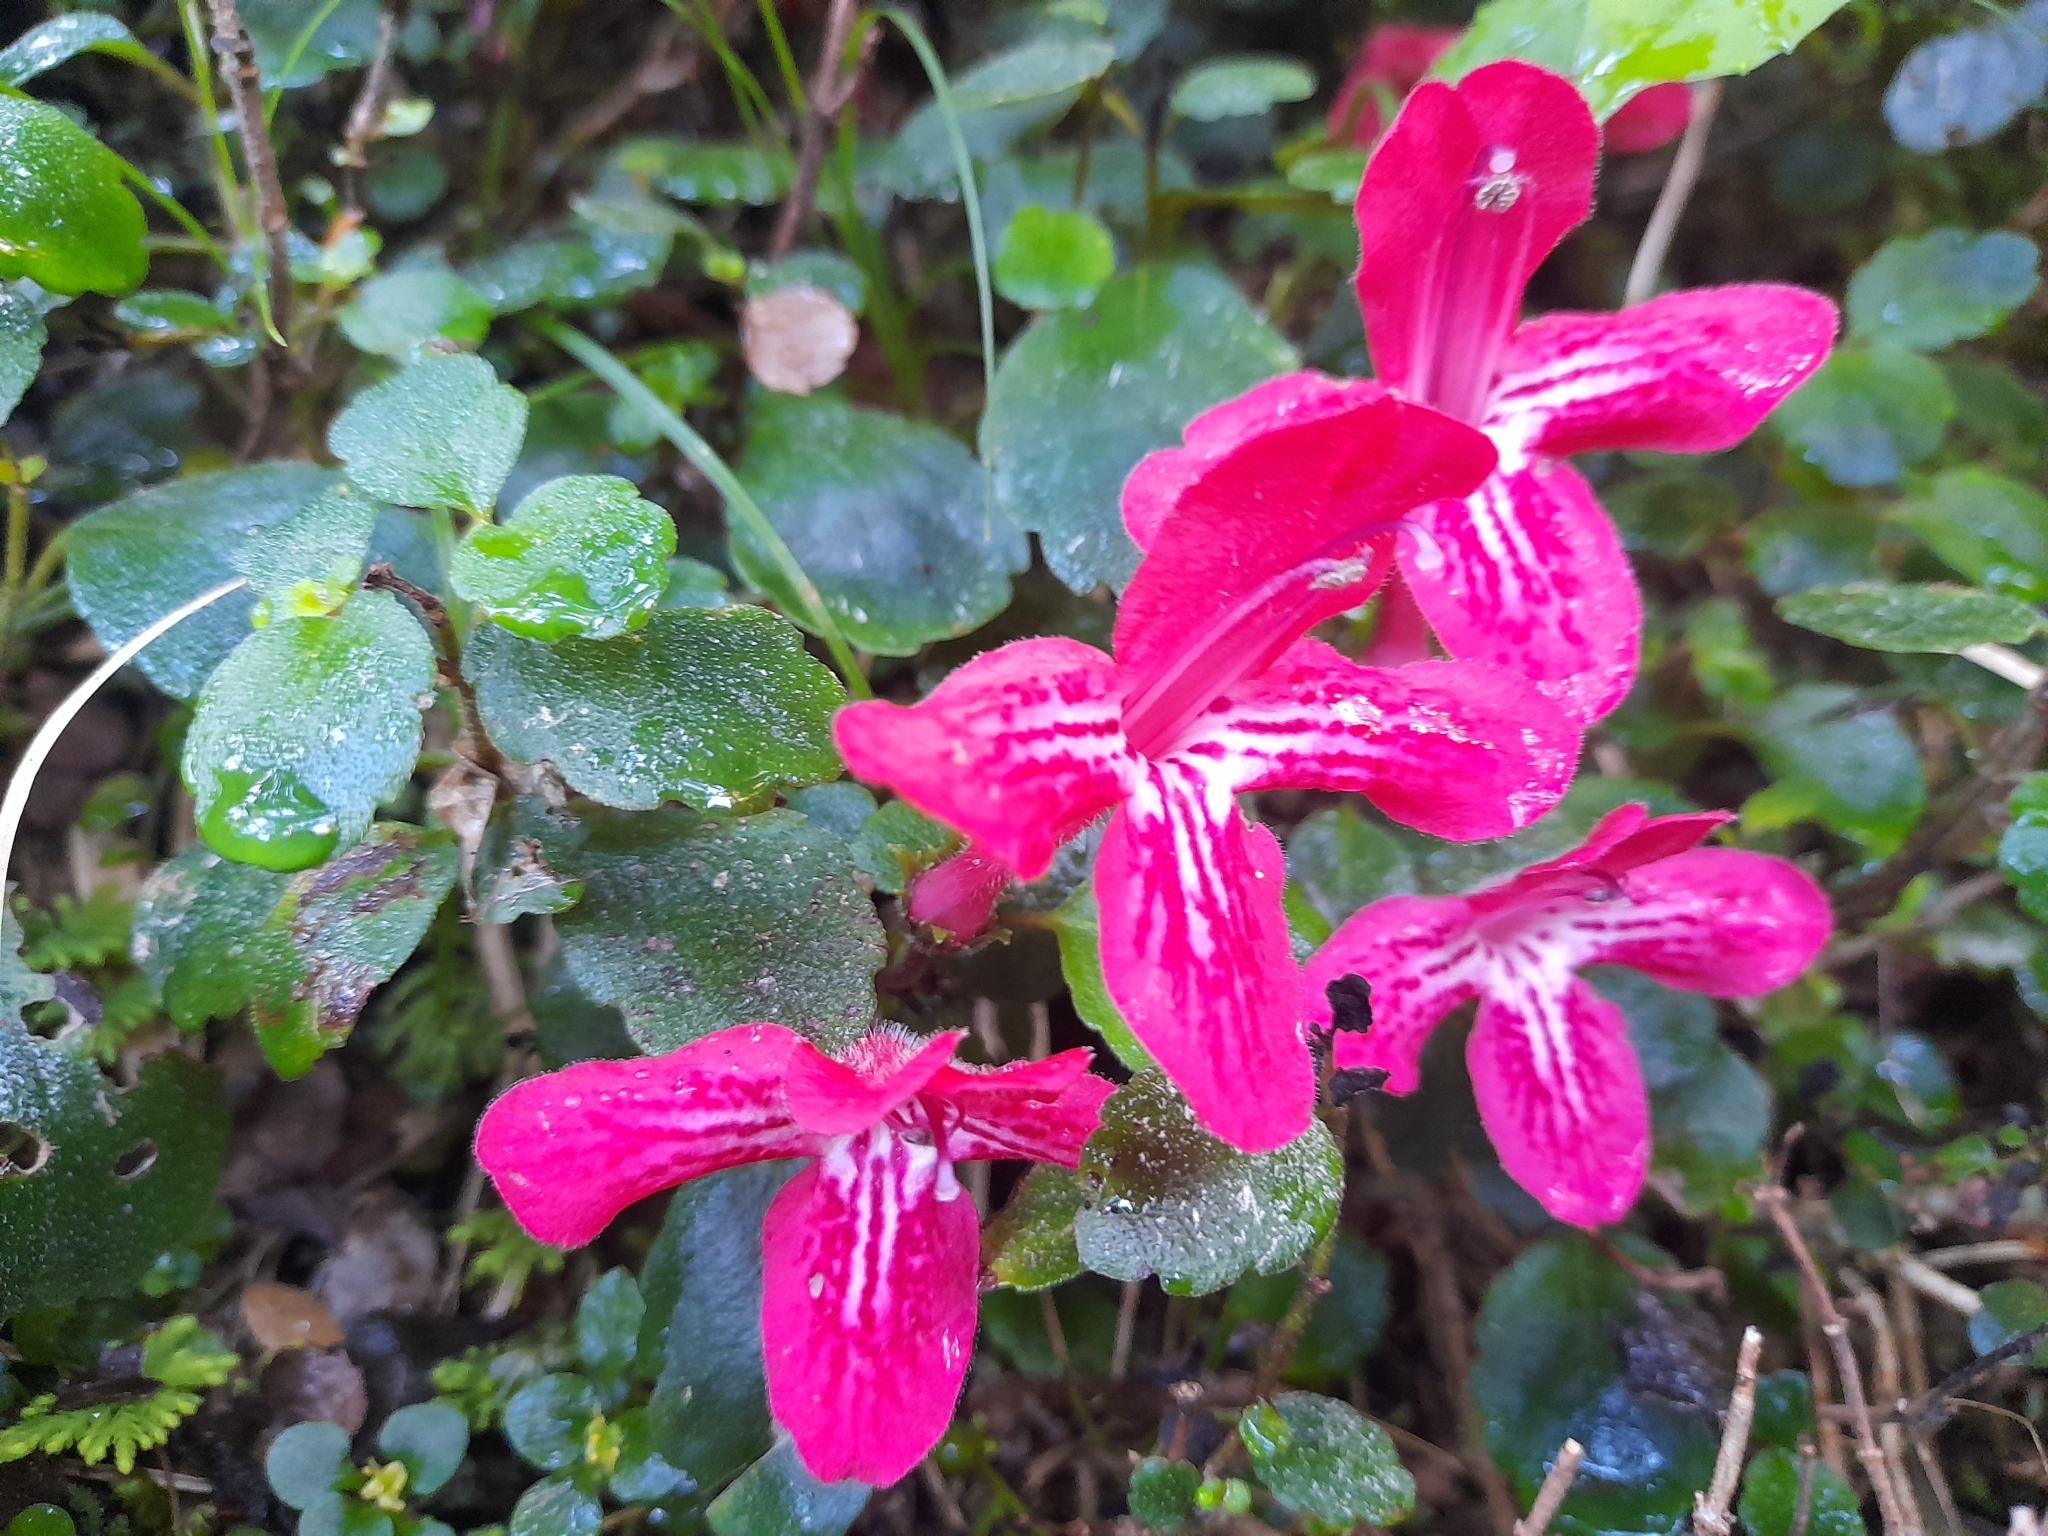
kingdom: Plantae
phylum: Tracheophyta
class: Magnoliopsida
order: Lamiales
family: Gesneriaceae
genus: Asteranthera
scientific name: Asteranthera ovata
